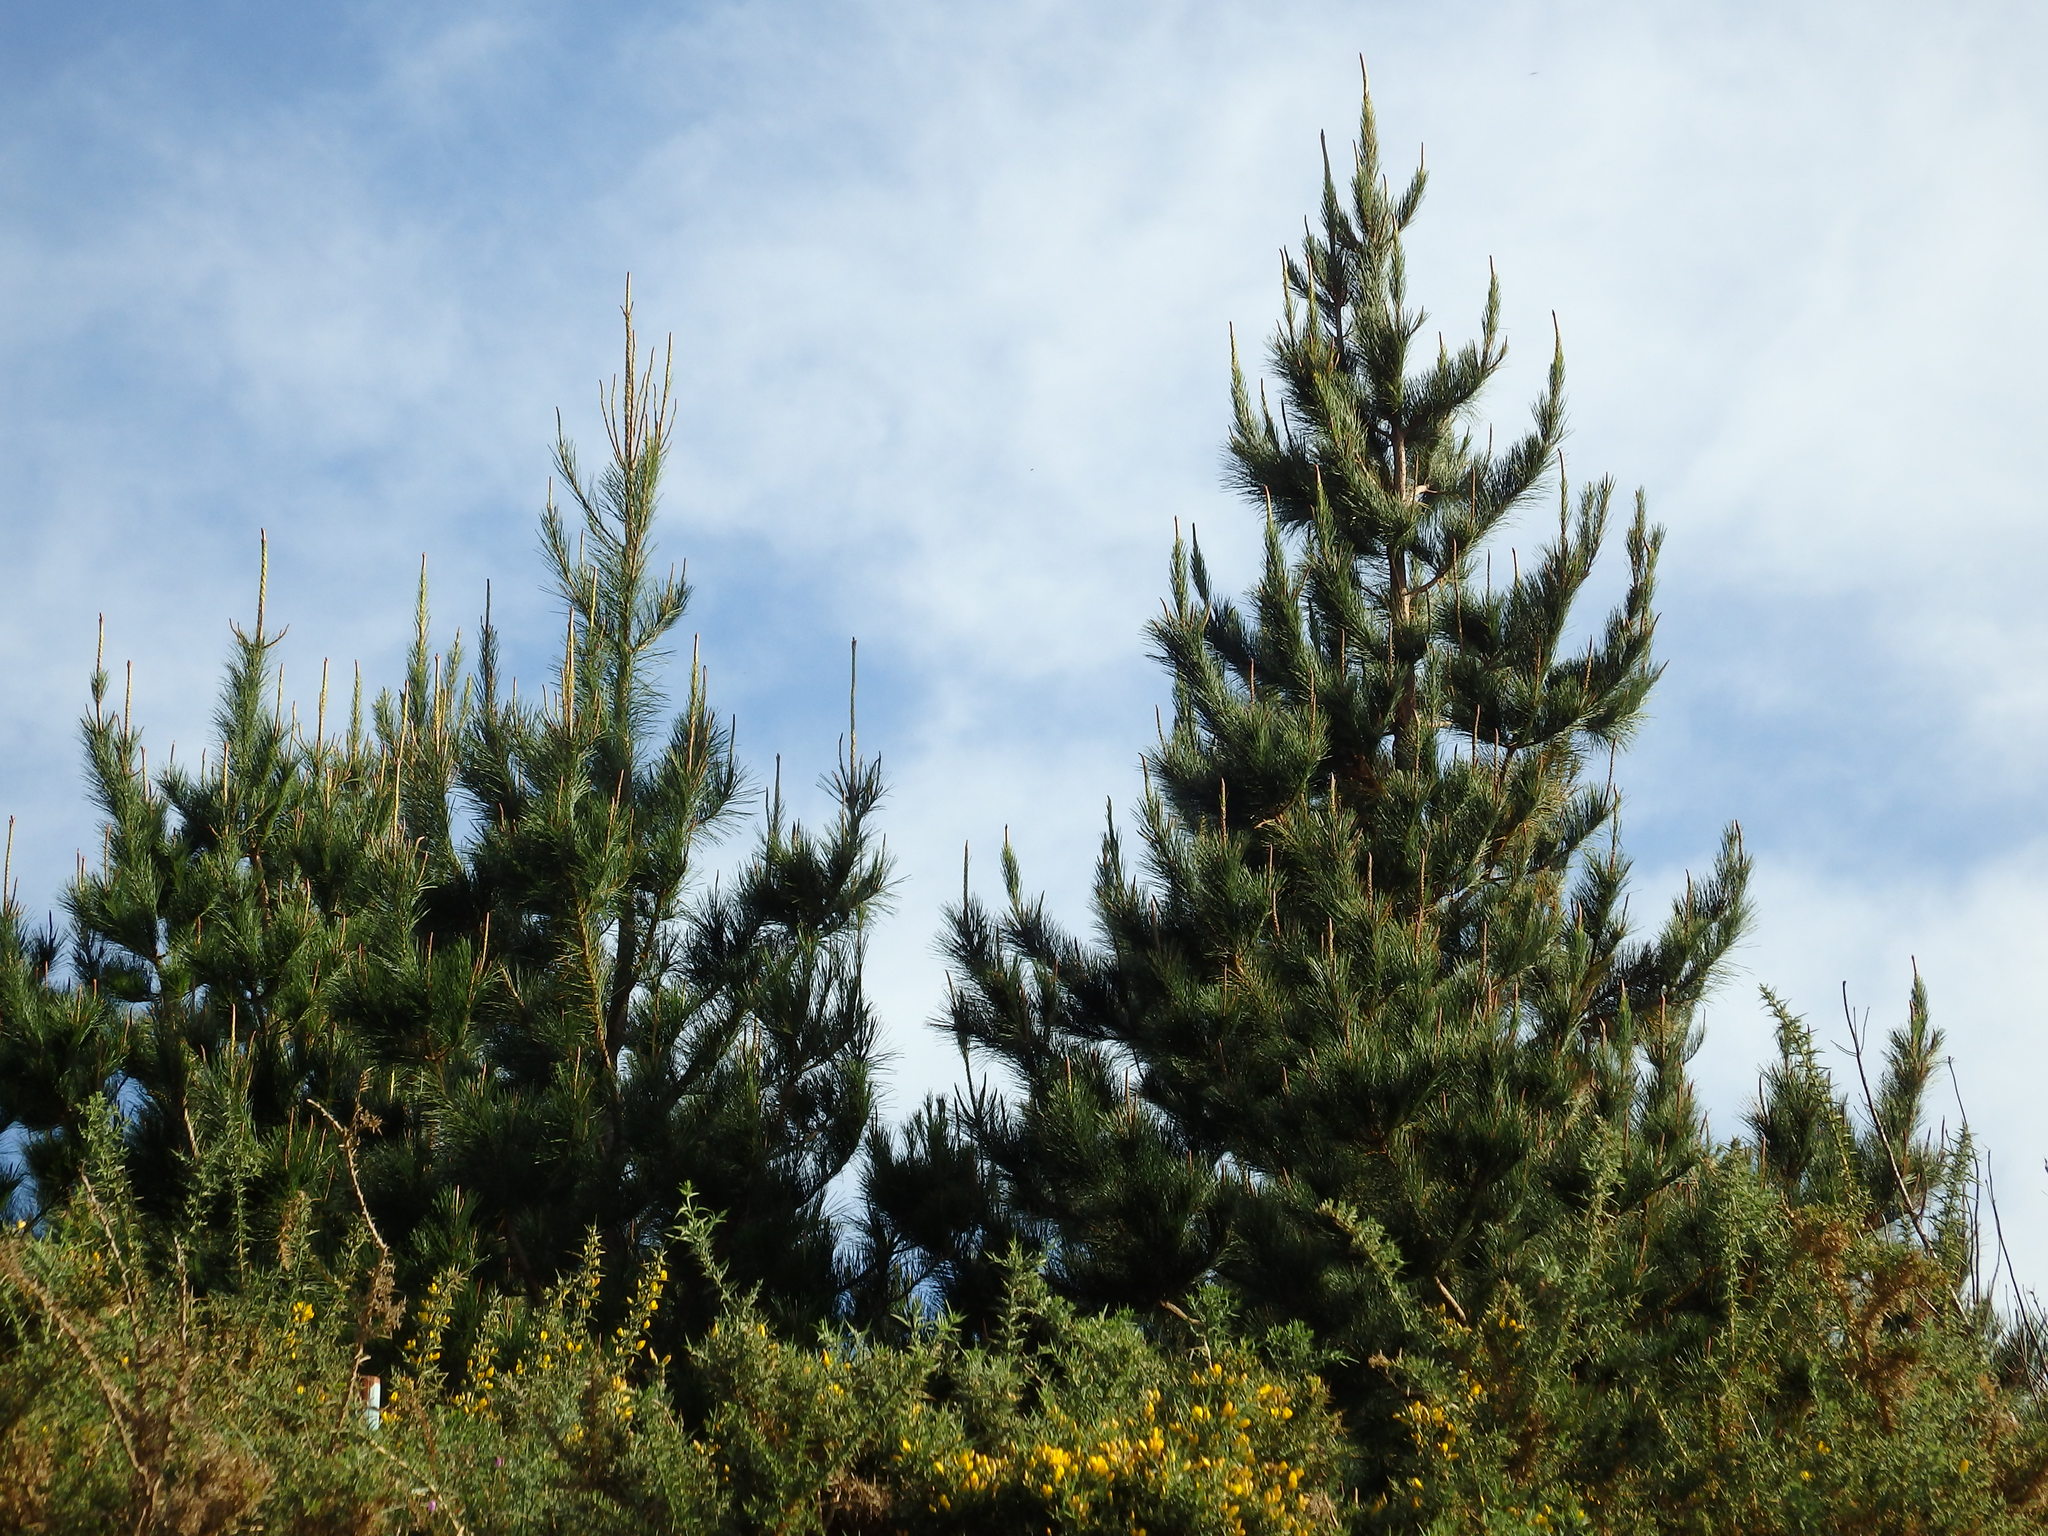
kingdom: Plantae
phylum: Tracheophyta
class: Pinopsida
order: Pinales
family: Pinaceae
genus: Pinus
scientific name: Pinus radiata
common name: Monterey pine
